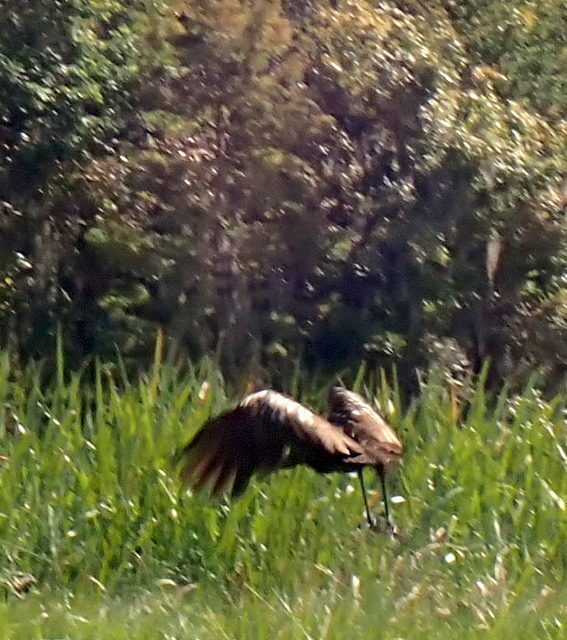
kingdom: Animalia
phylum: Chordata
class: Aves
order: Gruiformes
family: Aramidae
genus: Aramus
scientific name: Aramus guarauna
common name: Limpkin
